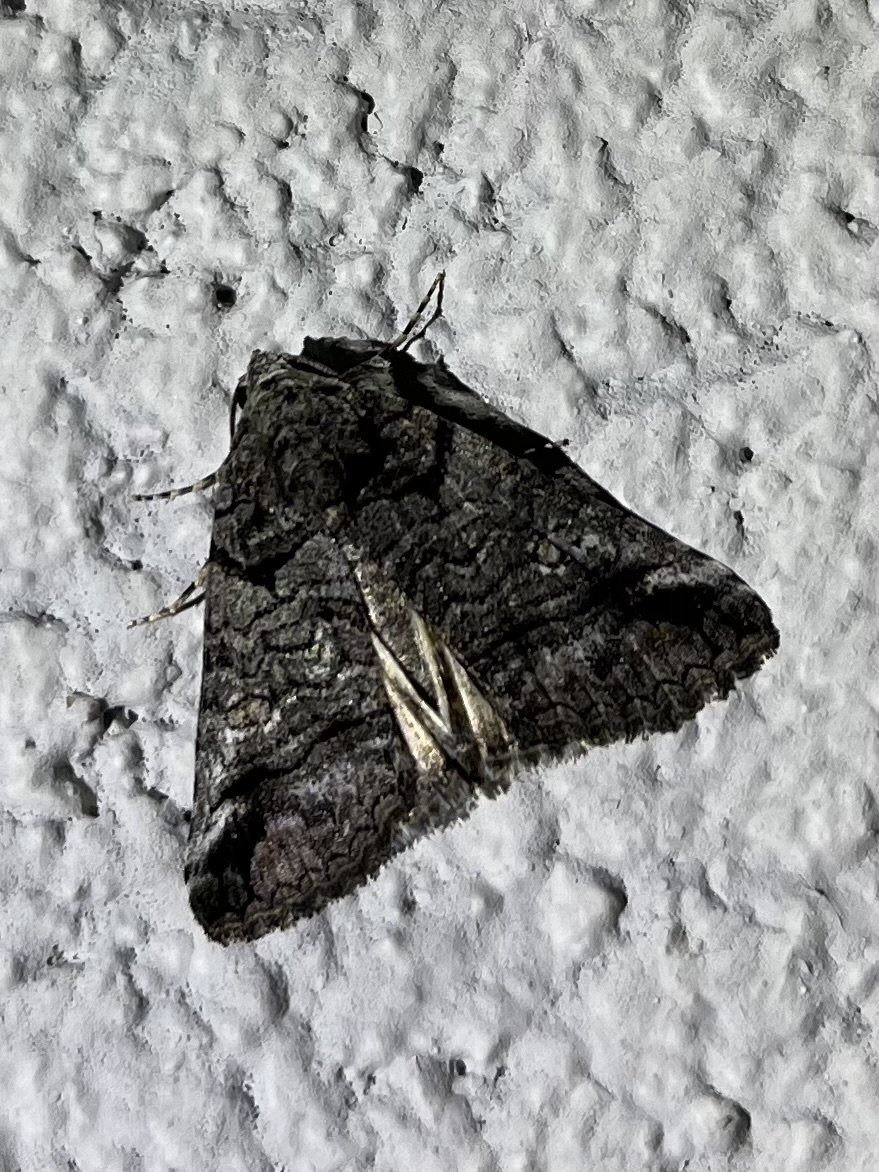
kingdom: Animalia
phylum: Arthropoda
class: Insecta
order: Lepidoptera
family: Erebidae
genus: Cortyta
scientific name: Cortyta phaeocyma
